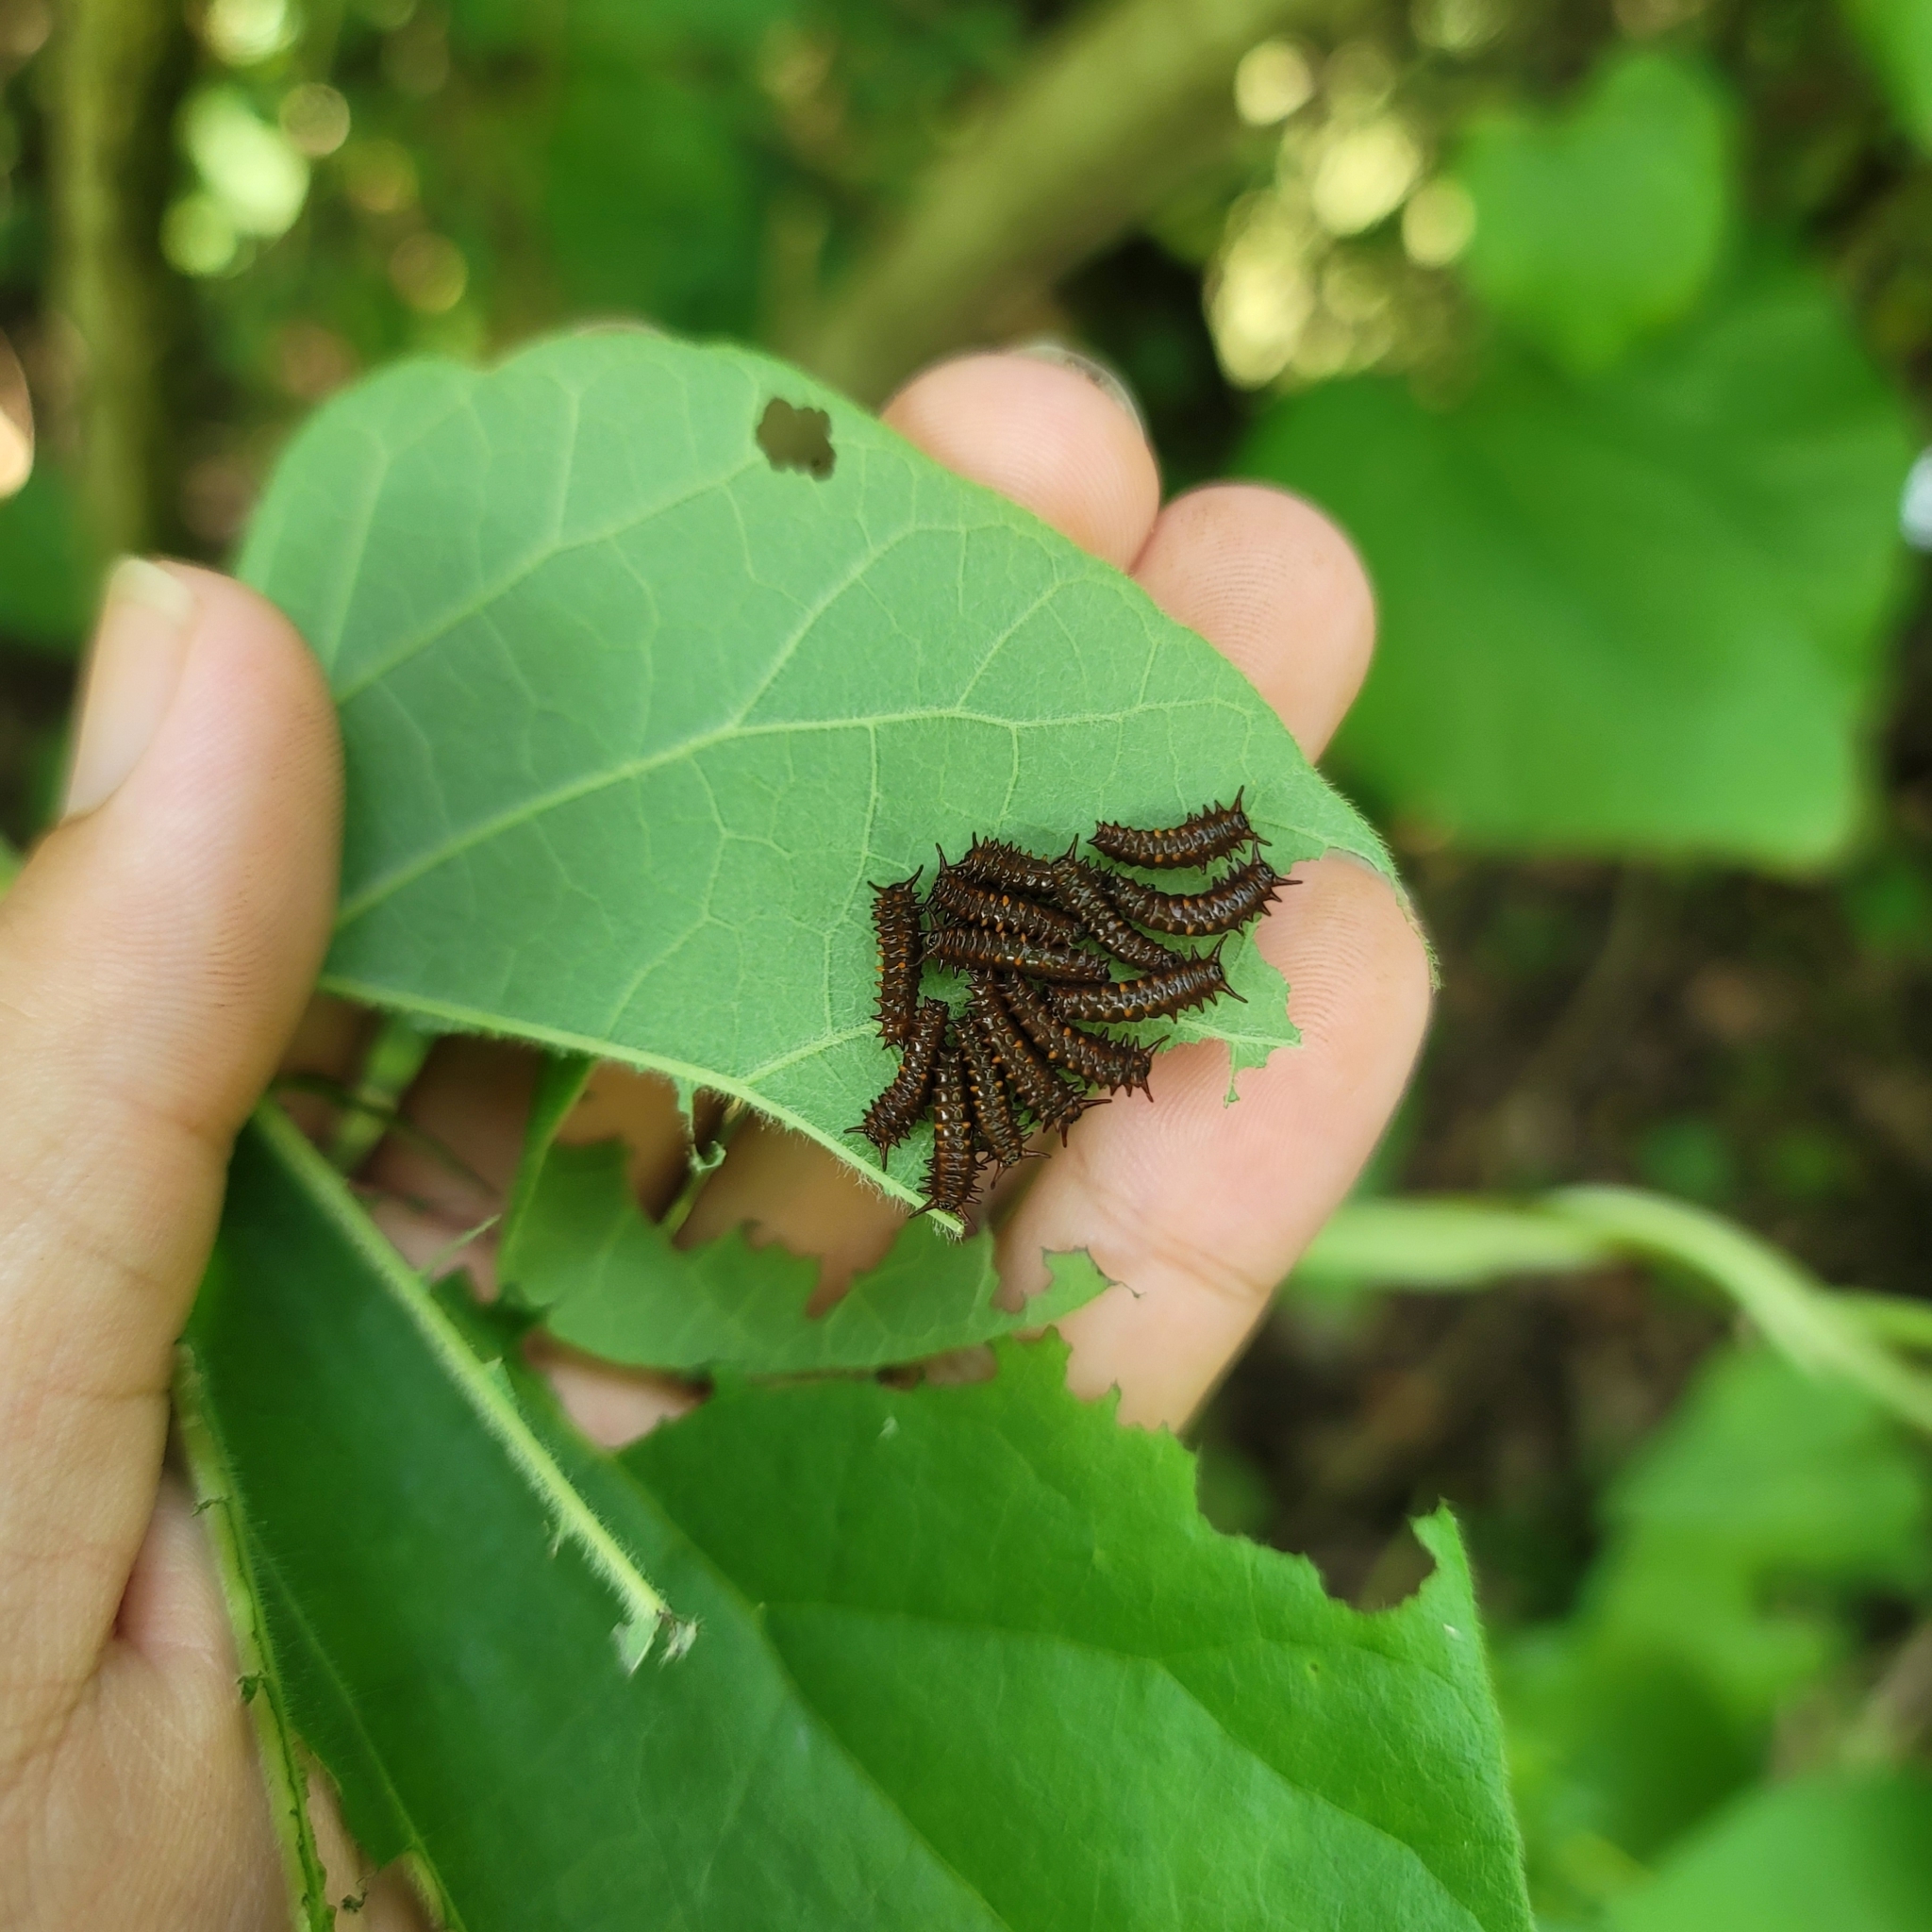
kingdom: Animalia
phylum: Arthropoda
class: Insecta
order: Lepidoptera
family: Papilionidae
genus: Battus
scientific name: Battus philenor
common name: Pipevine swallowtail
